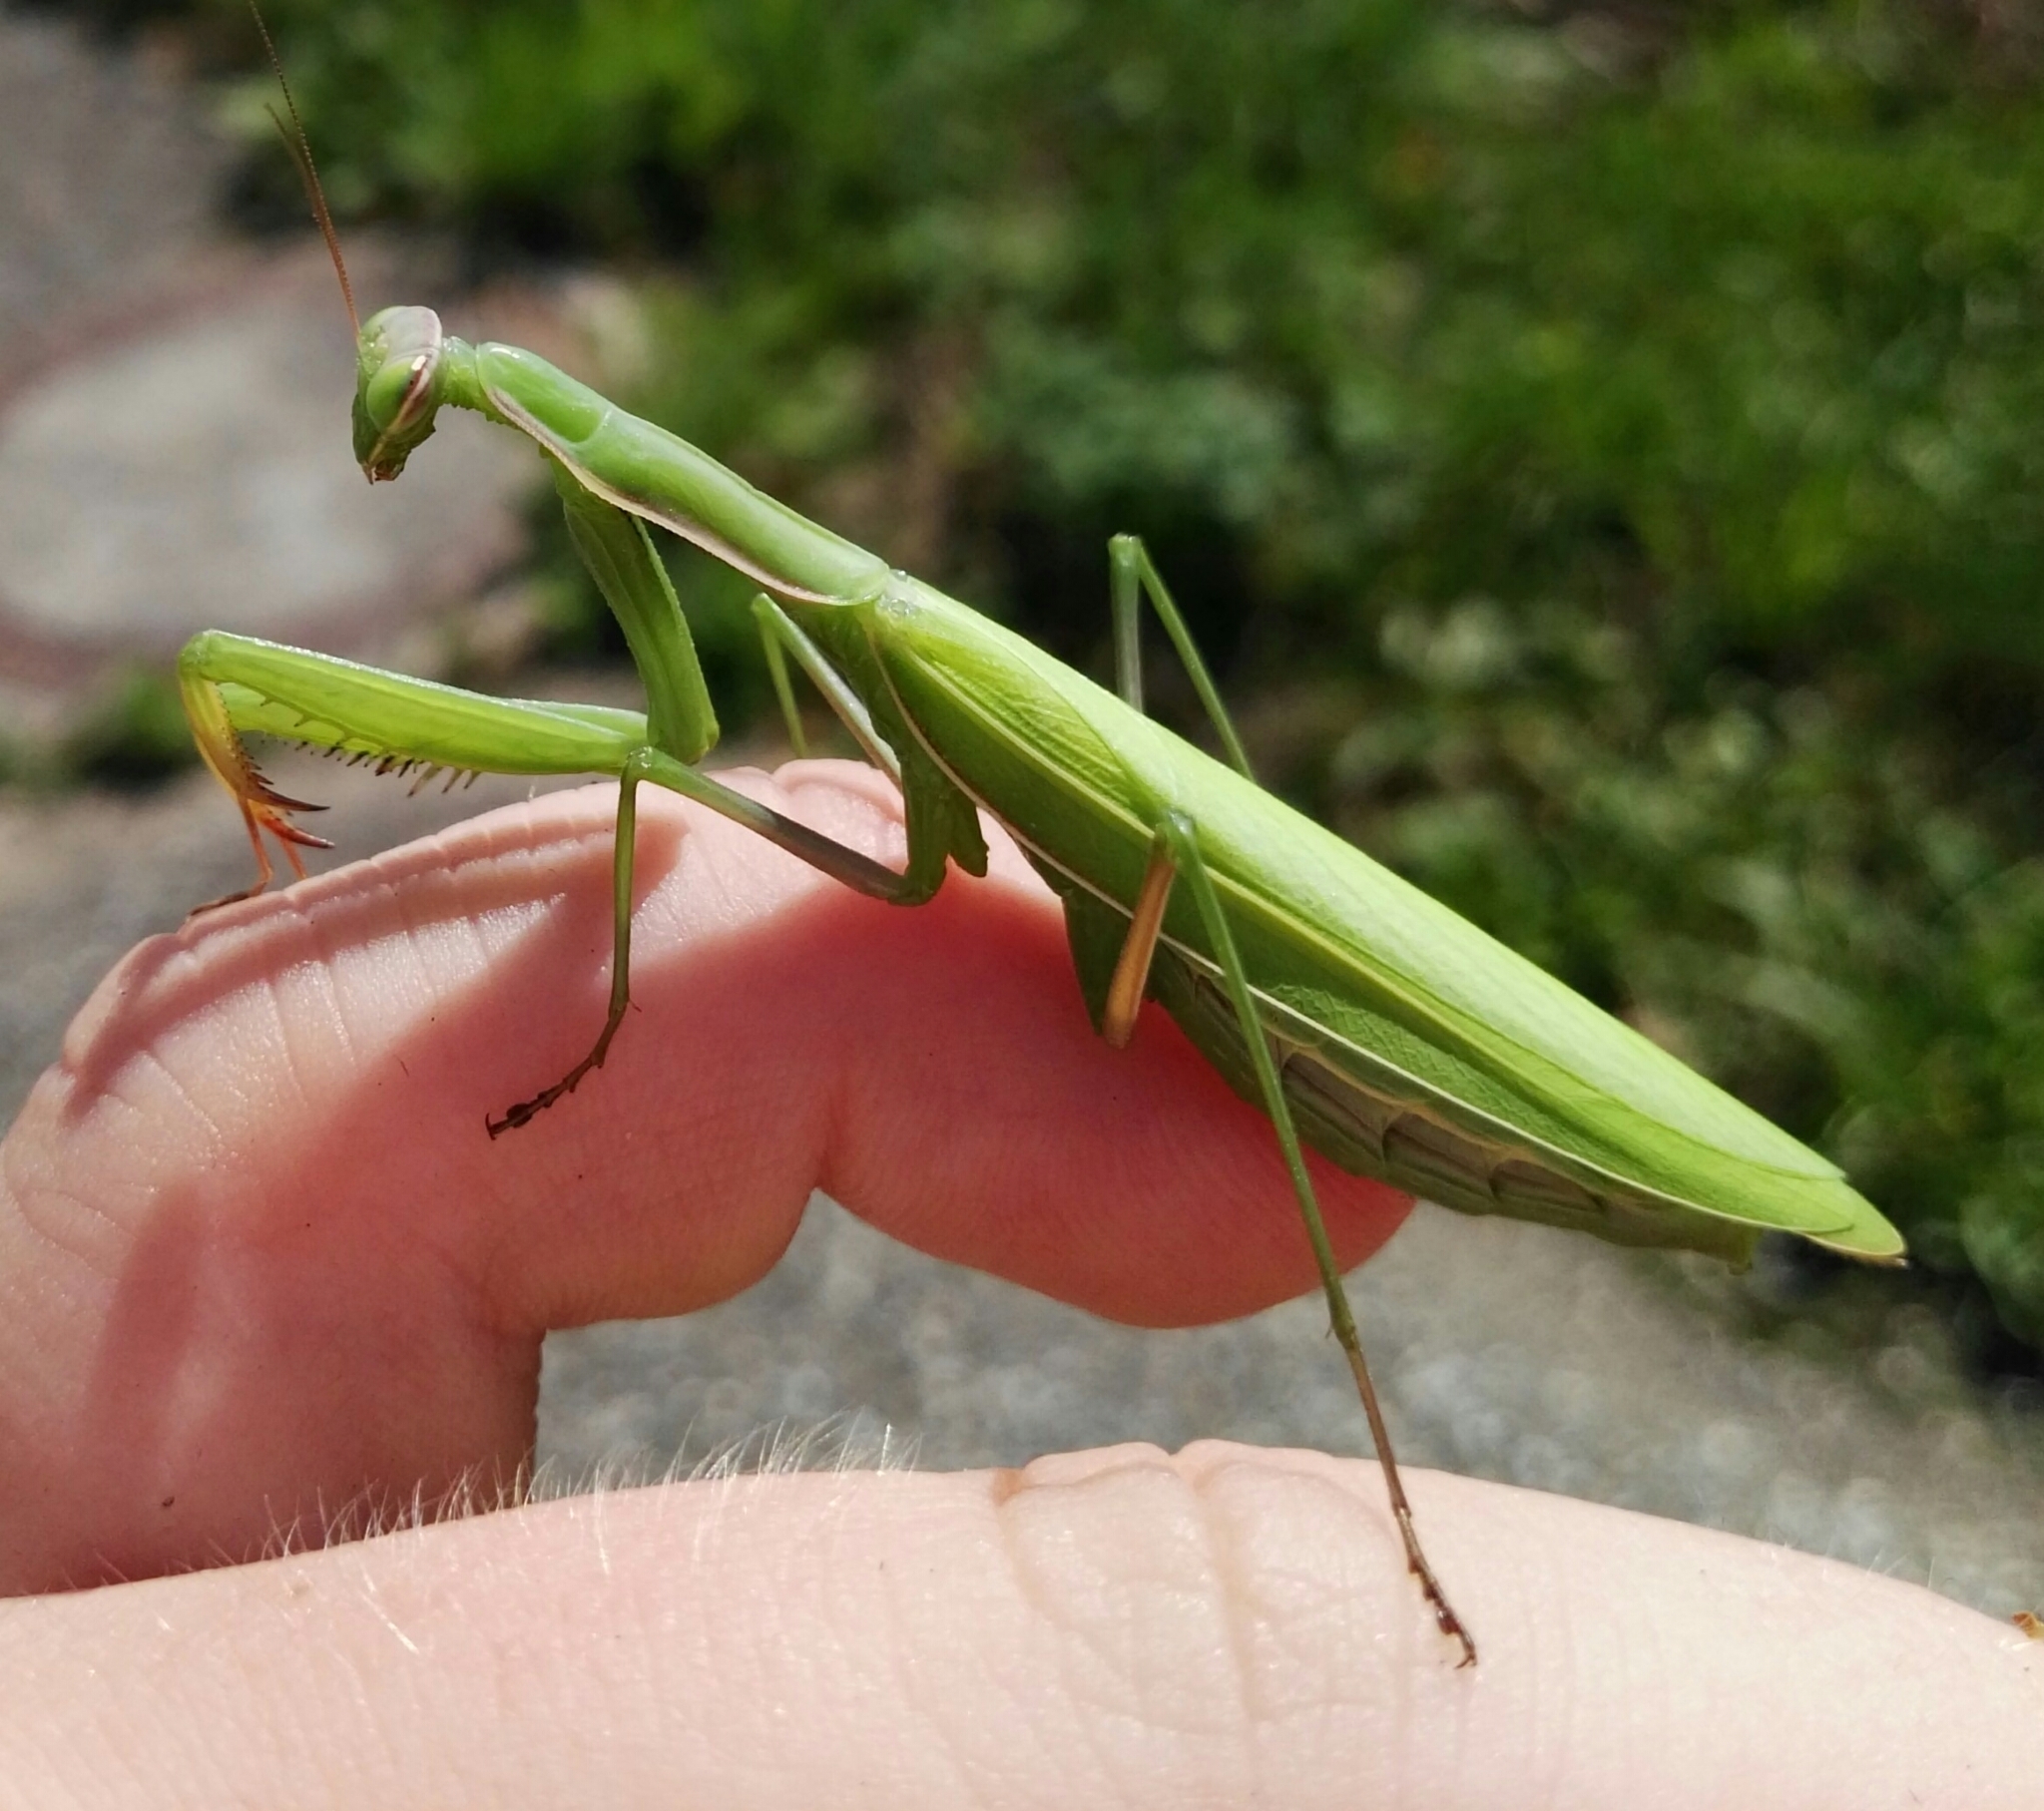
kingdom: Animalia
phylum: Arthropoda
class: Insecta
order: Mantodea
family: Mantidae
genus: Mantis
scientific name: Mantis religiosa
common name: Praying mantis
